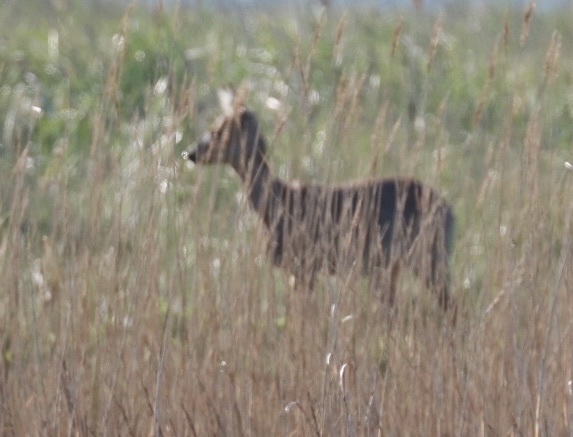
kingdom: Animalia
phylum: Chordata
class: Mammalia
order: Artiodactyla
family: Cervidae
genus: Capreolus
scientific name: Capreolus capreolus
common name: Western roe deer
